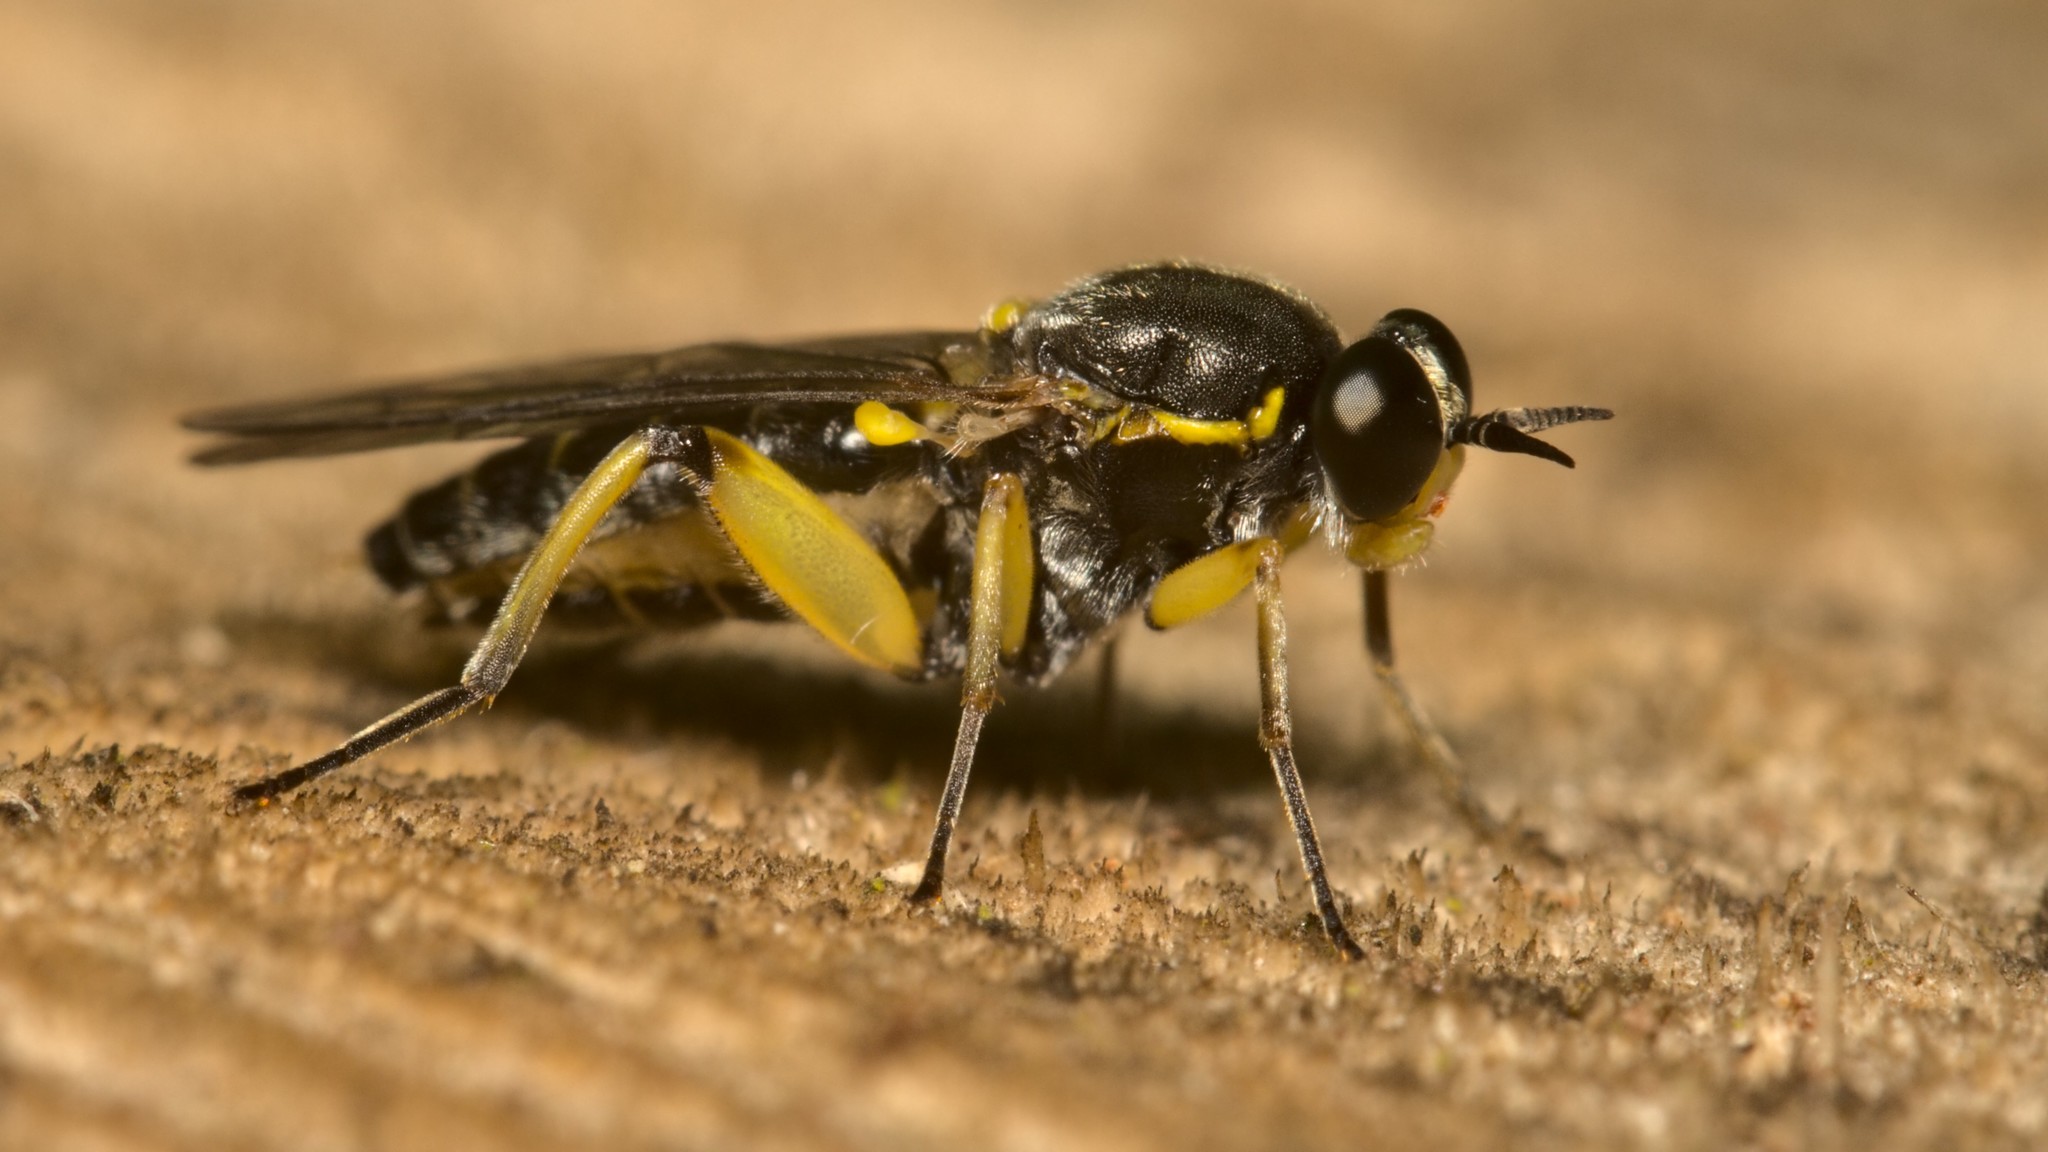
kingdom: Animalia
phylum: Arthropoda
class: Insecta
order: Diptera
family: Xylomyidae
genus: Solva
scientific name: Solva marginata
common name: Drab wood-soldierfly
